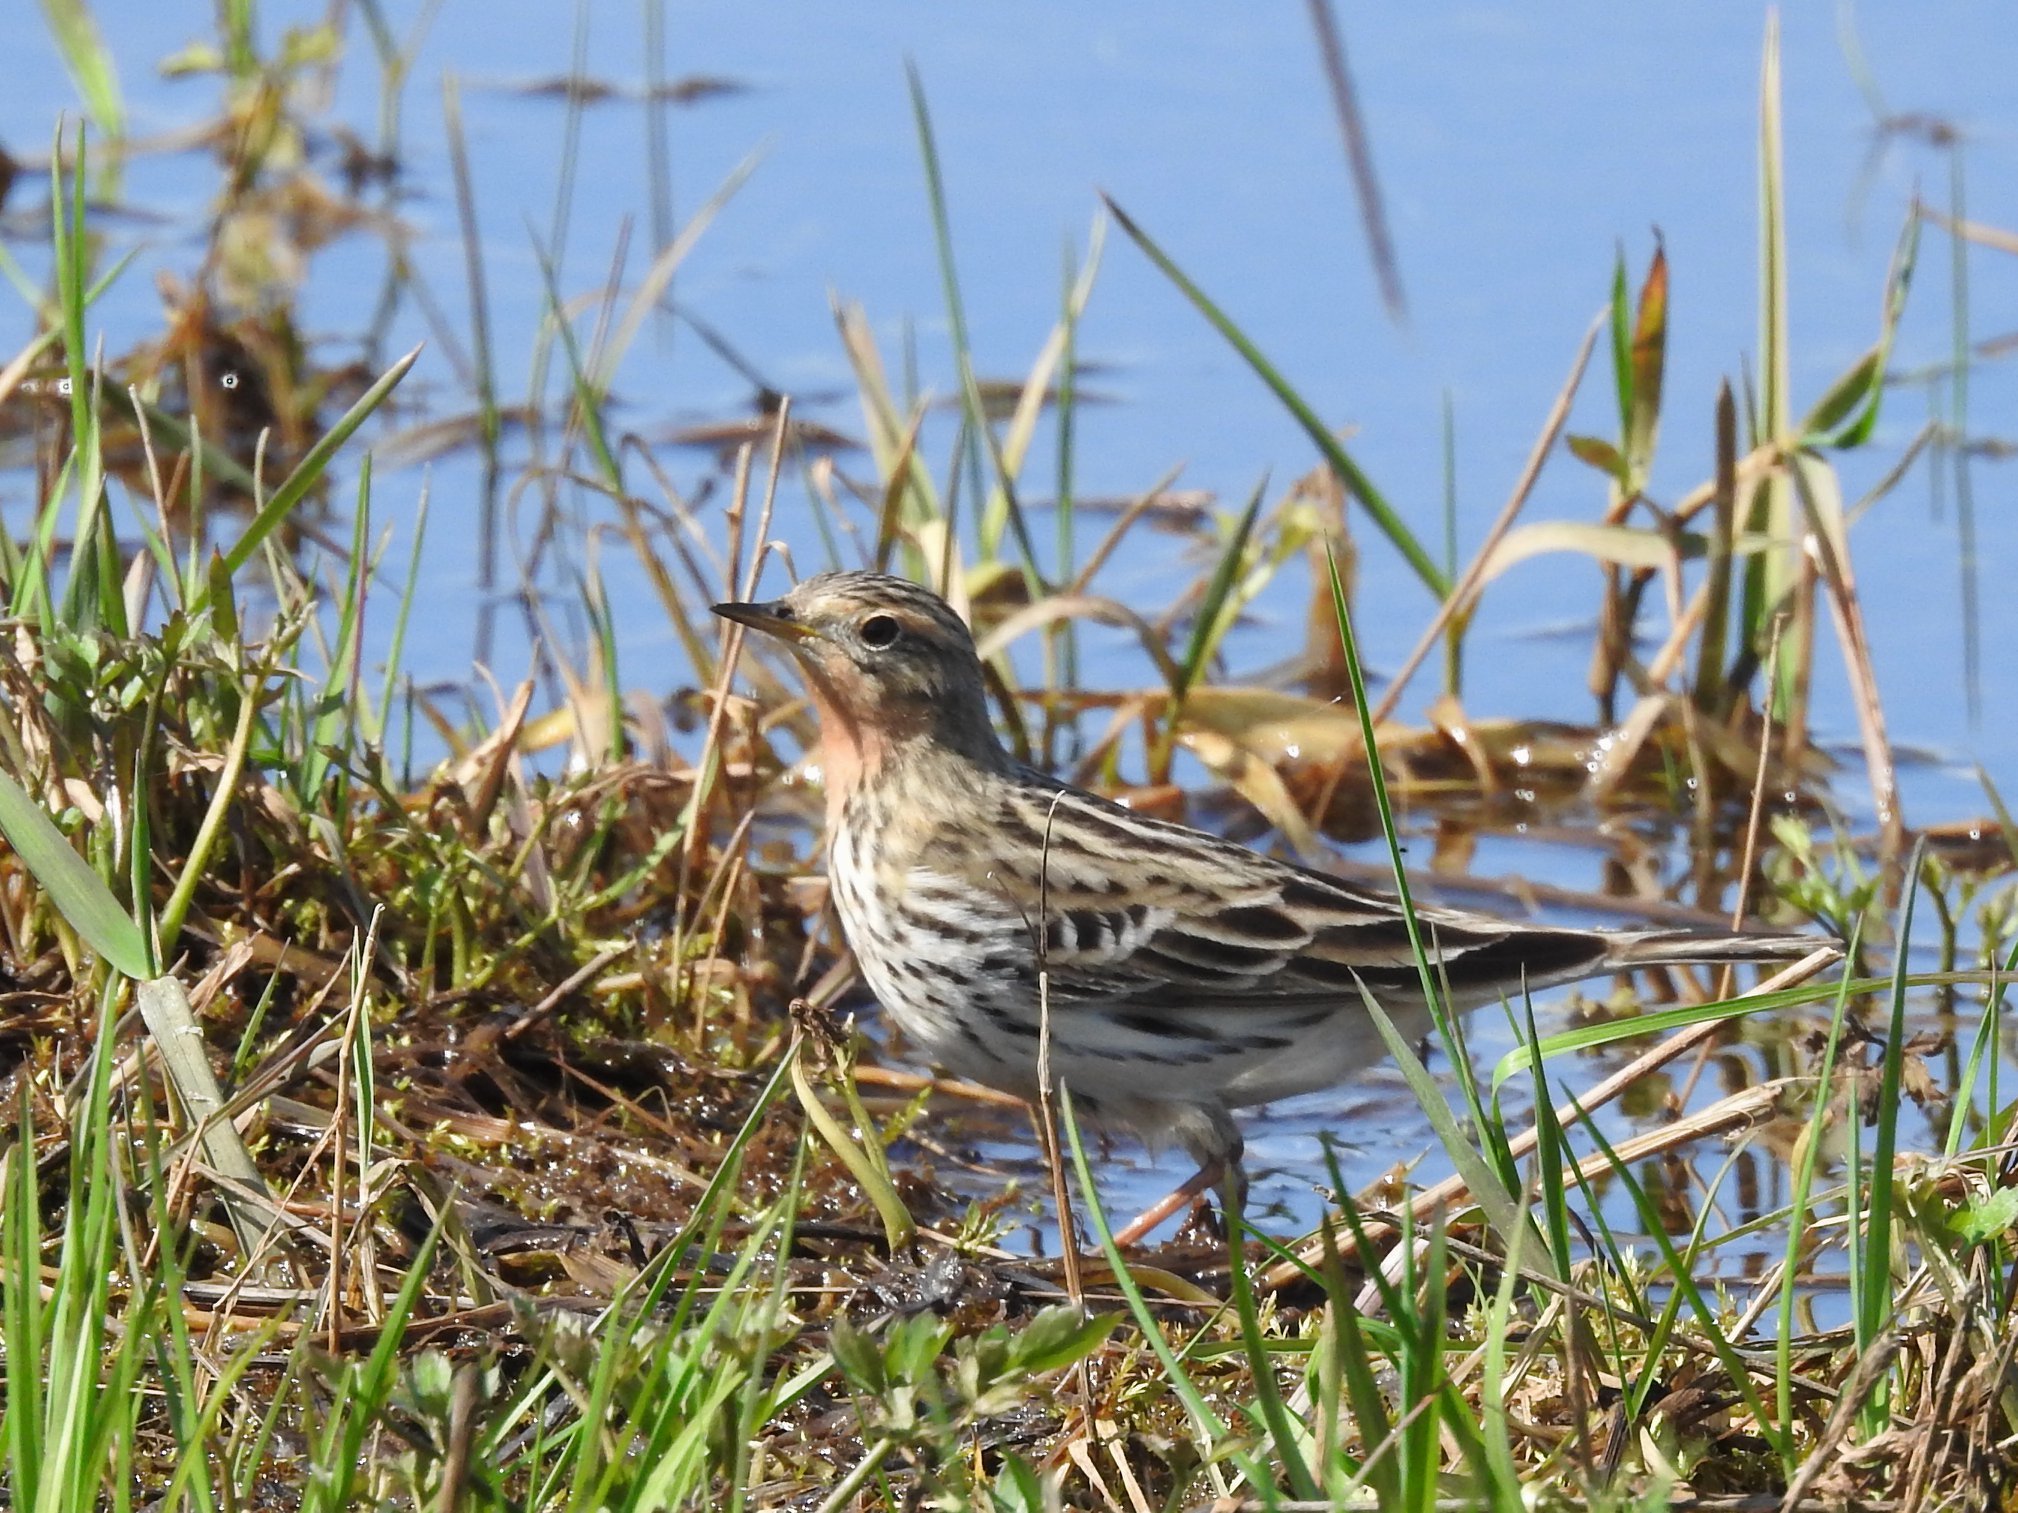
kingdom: Animalia
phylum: Chordata
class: Aves
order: Passeriformes
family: Motacillidae
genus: Anthus
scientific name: Anthus cervinus
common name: Red-throated pipit
